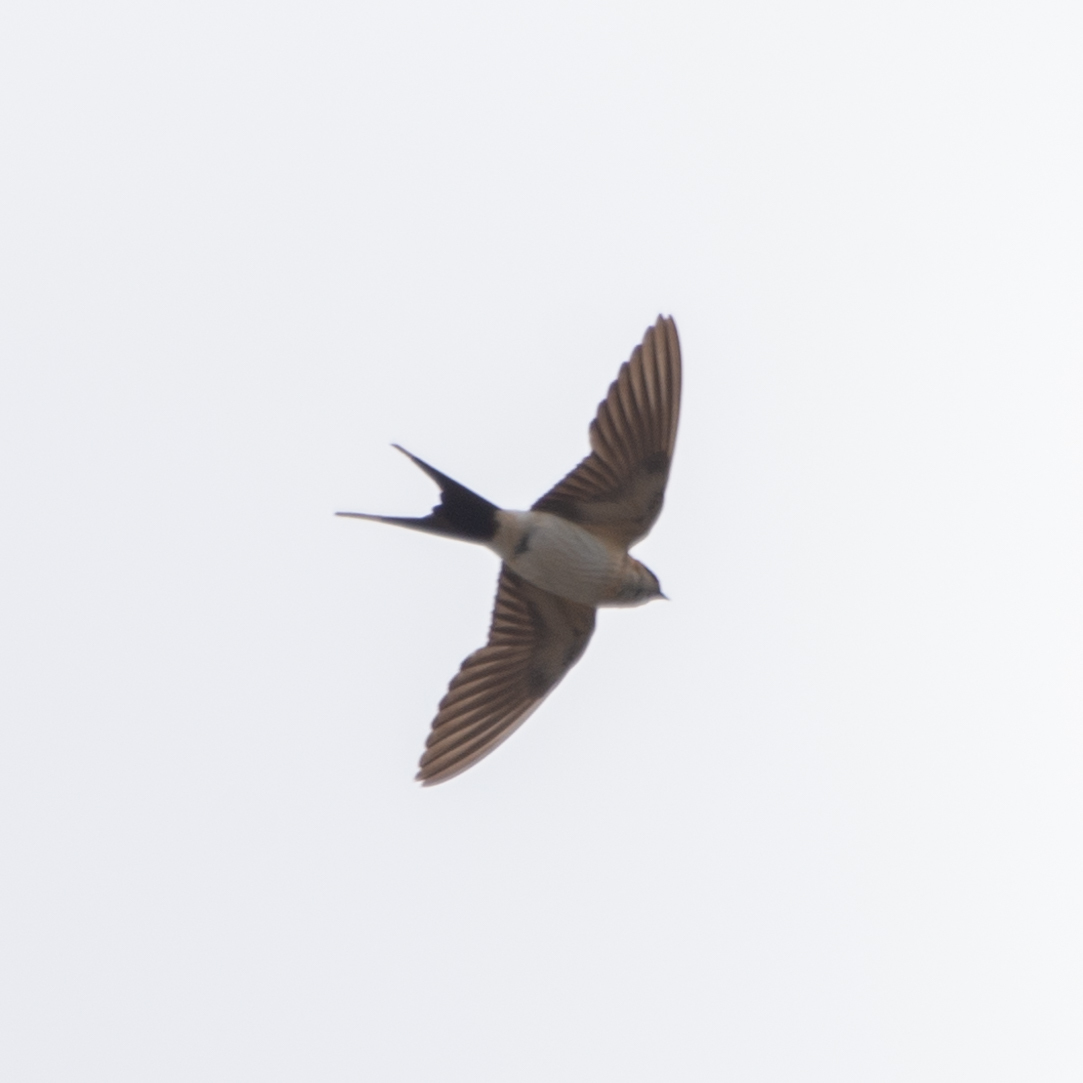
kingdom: Animalia
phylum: Chordata
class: Aves
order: Passeriformes
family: Hirundinidae
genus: Cecropis
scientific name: Cecropis daurica
